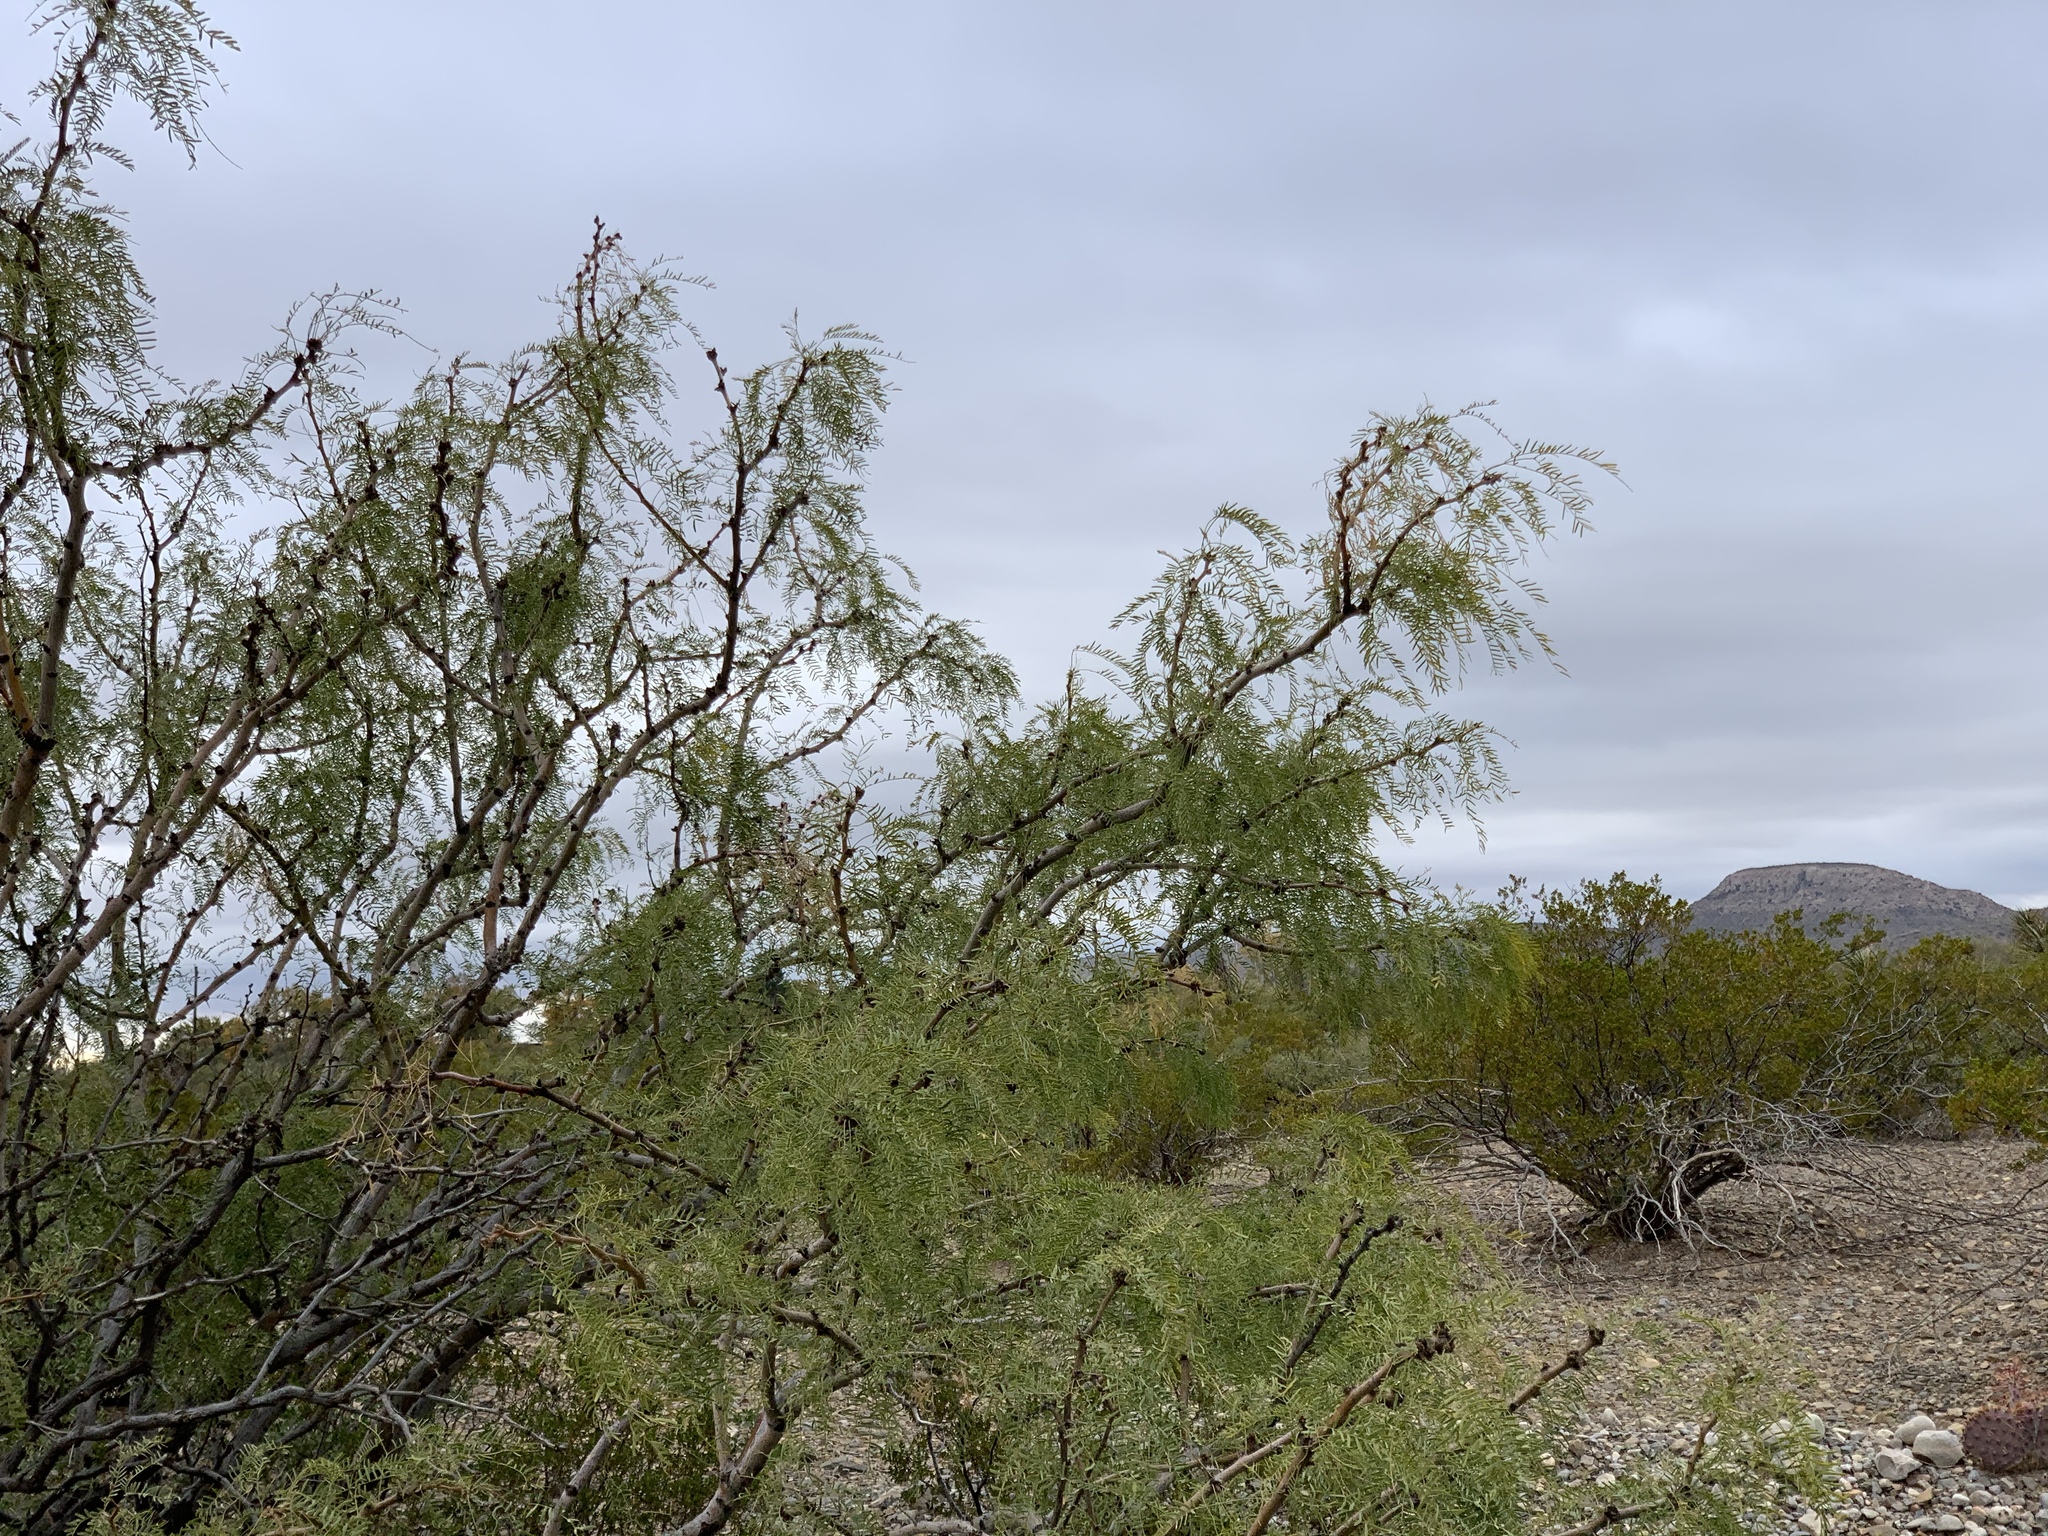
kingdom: Plantae
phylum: Tracheophyta
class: Magnoliopsida
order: Fabales
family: Fabaceae
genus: Prosopis
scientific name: Prosopis glandulosa
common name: Honey mesquite
